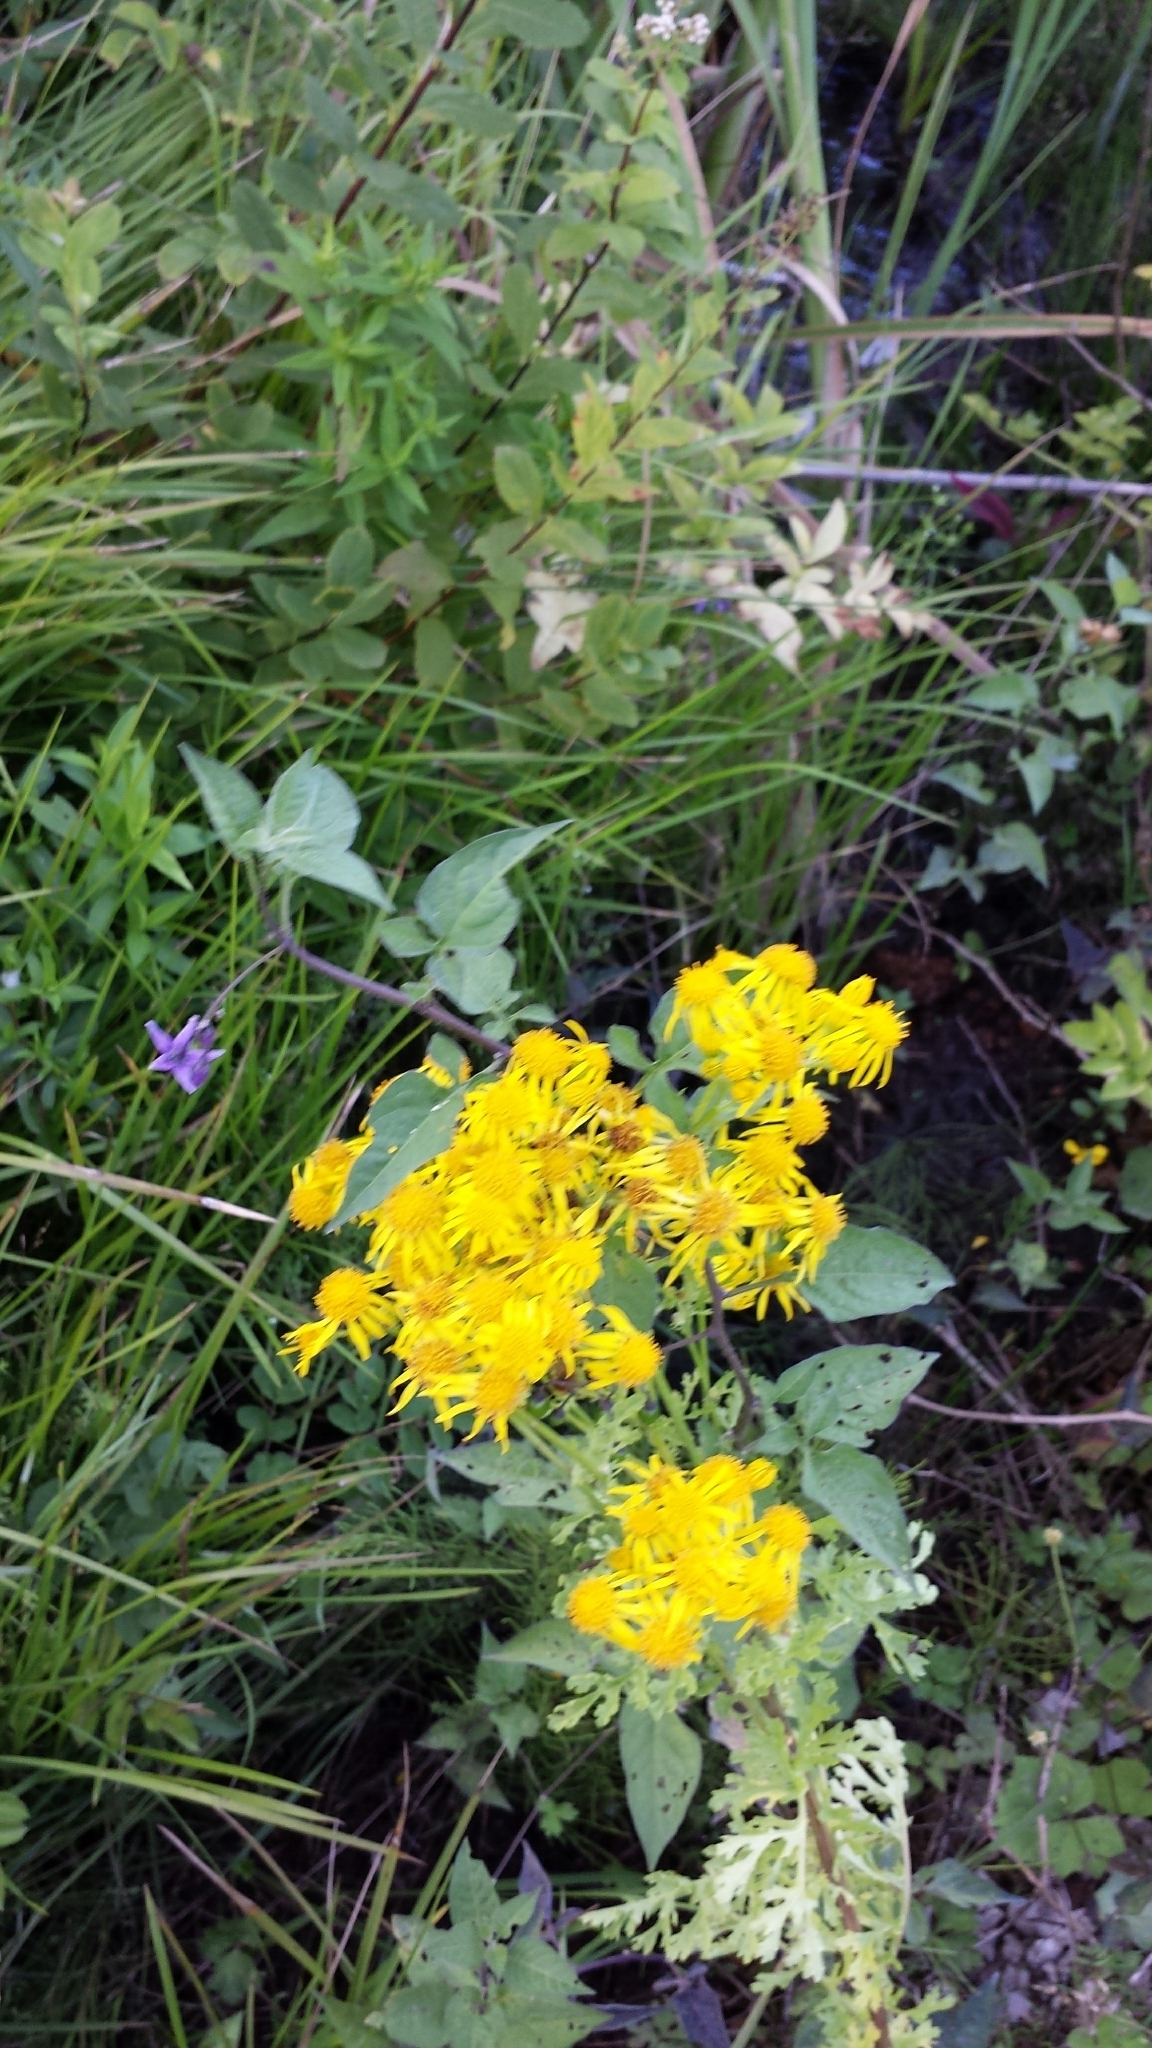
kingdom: Plantae
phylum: Tracheophyta
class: Magnoliopsida
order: Asterales
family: Asteraceae
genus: Jacobaea
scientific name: Jacobaea vulgaris
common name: Stinking willie
